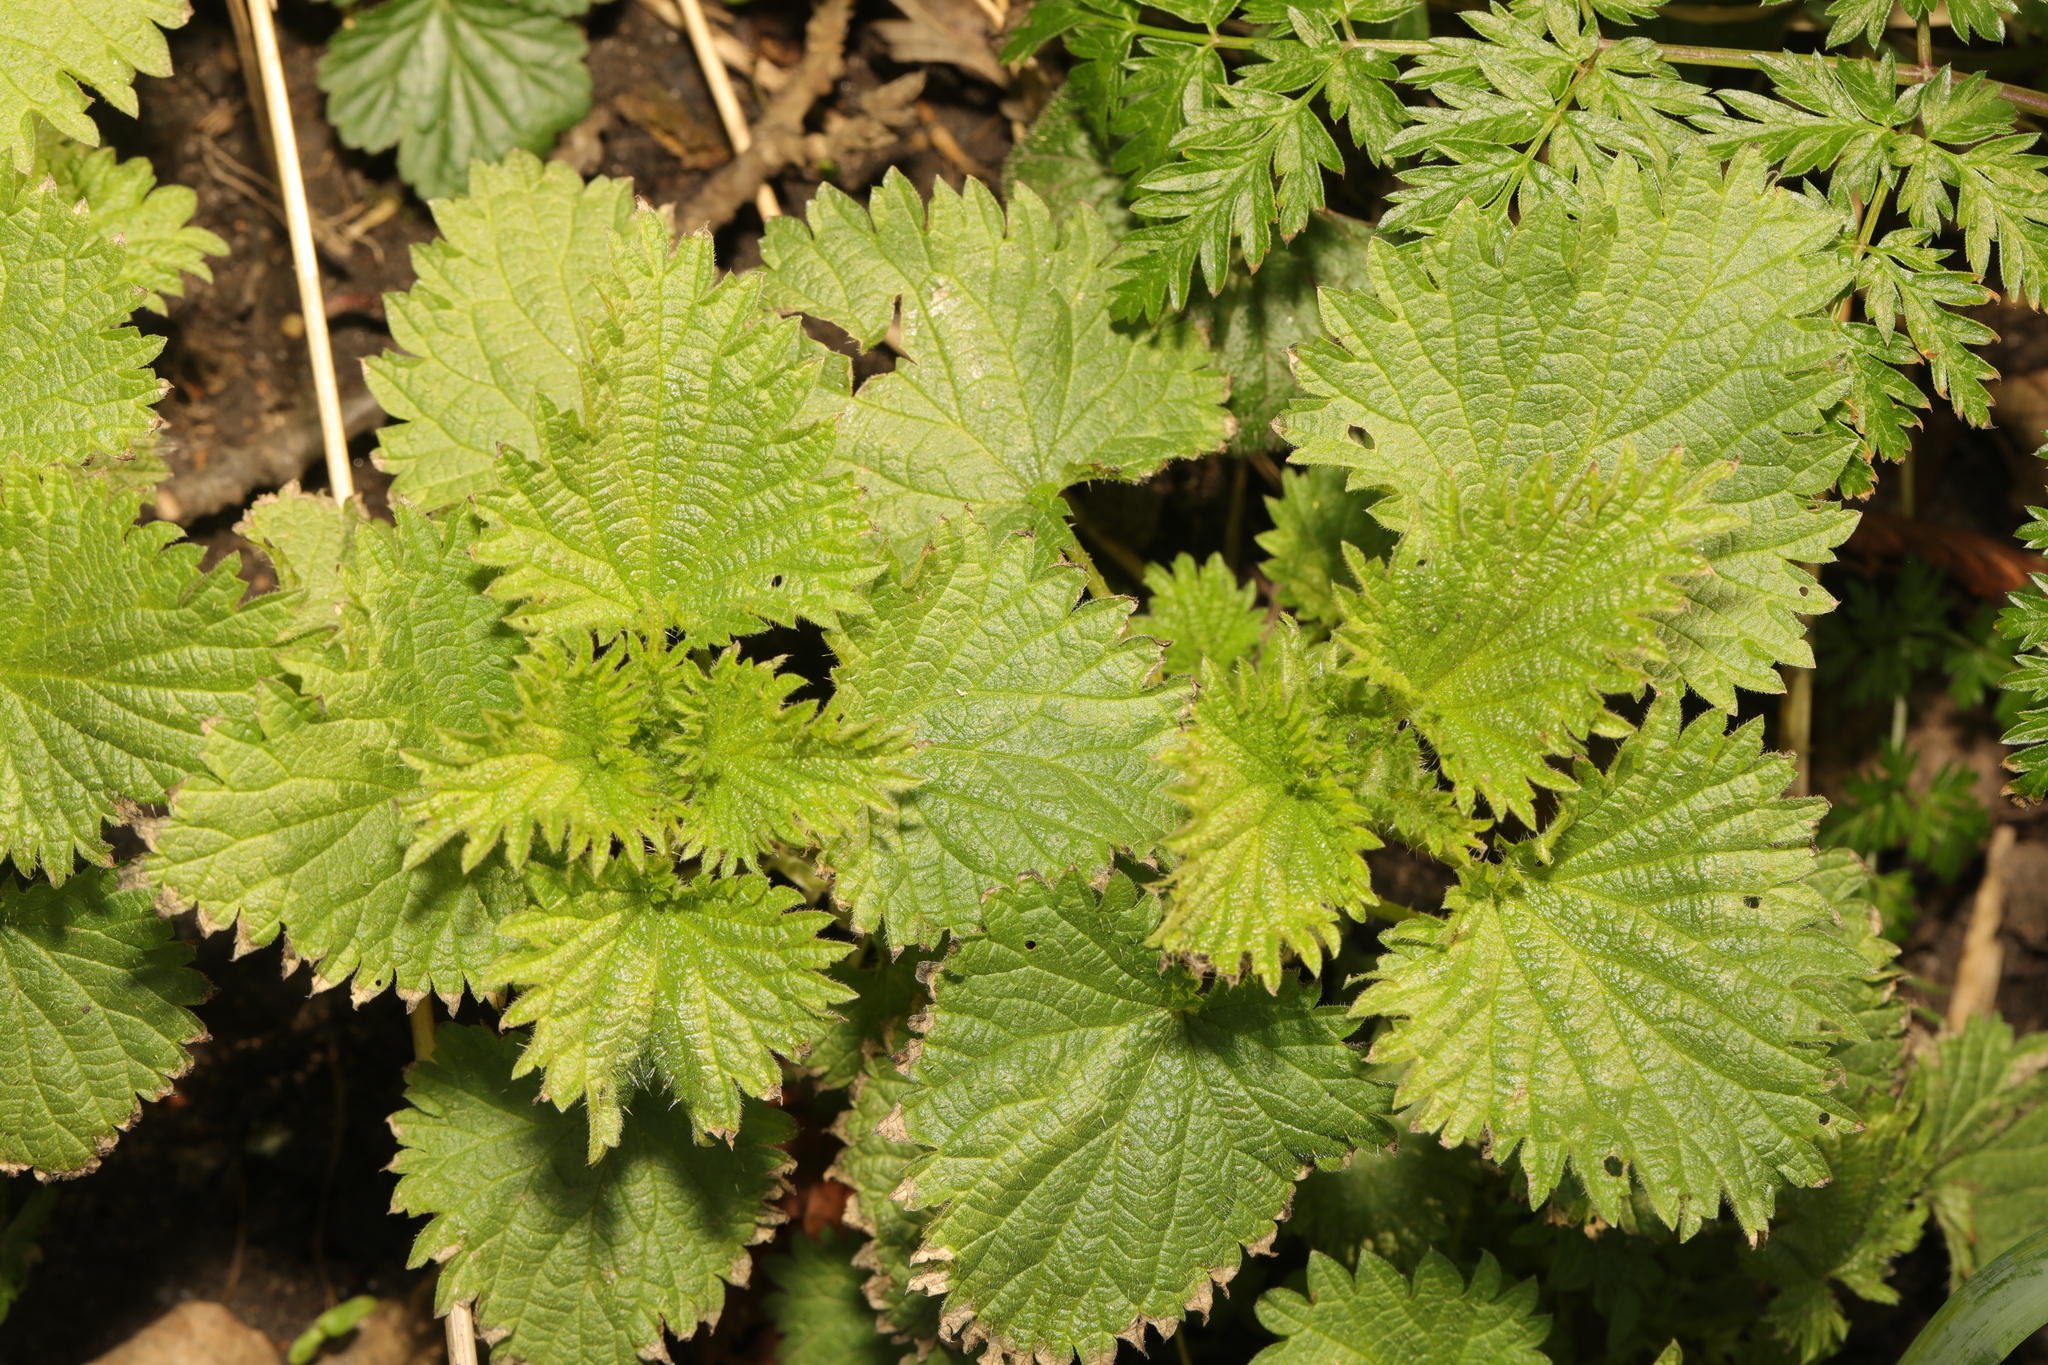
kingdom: Plantae
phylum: Tracheophyta
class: Magnoliopsida
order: Rosales
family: Urticaceae
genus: Urtica
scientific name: Urtica dioica
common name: Common nettle
